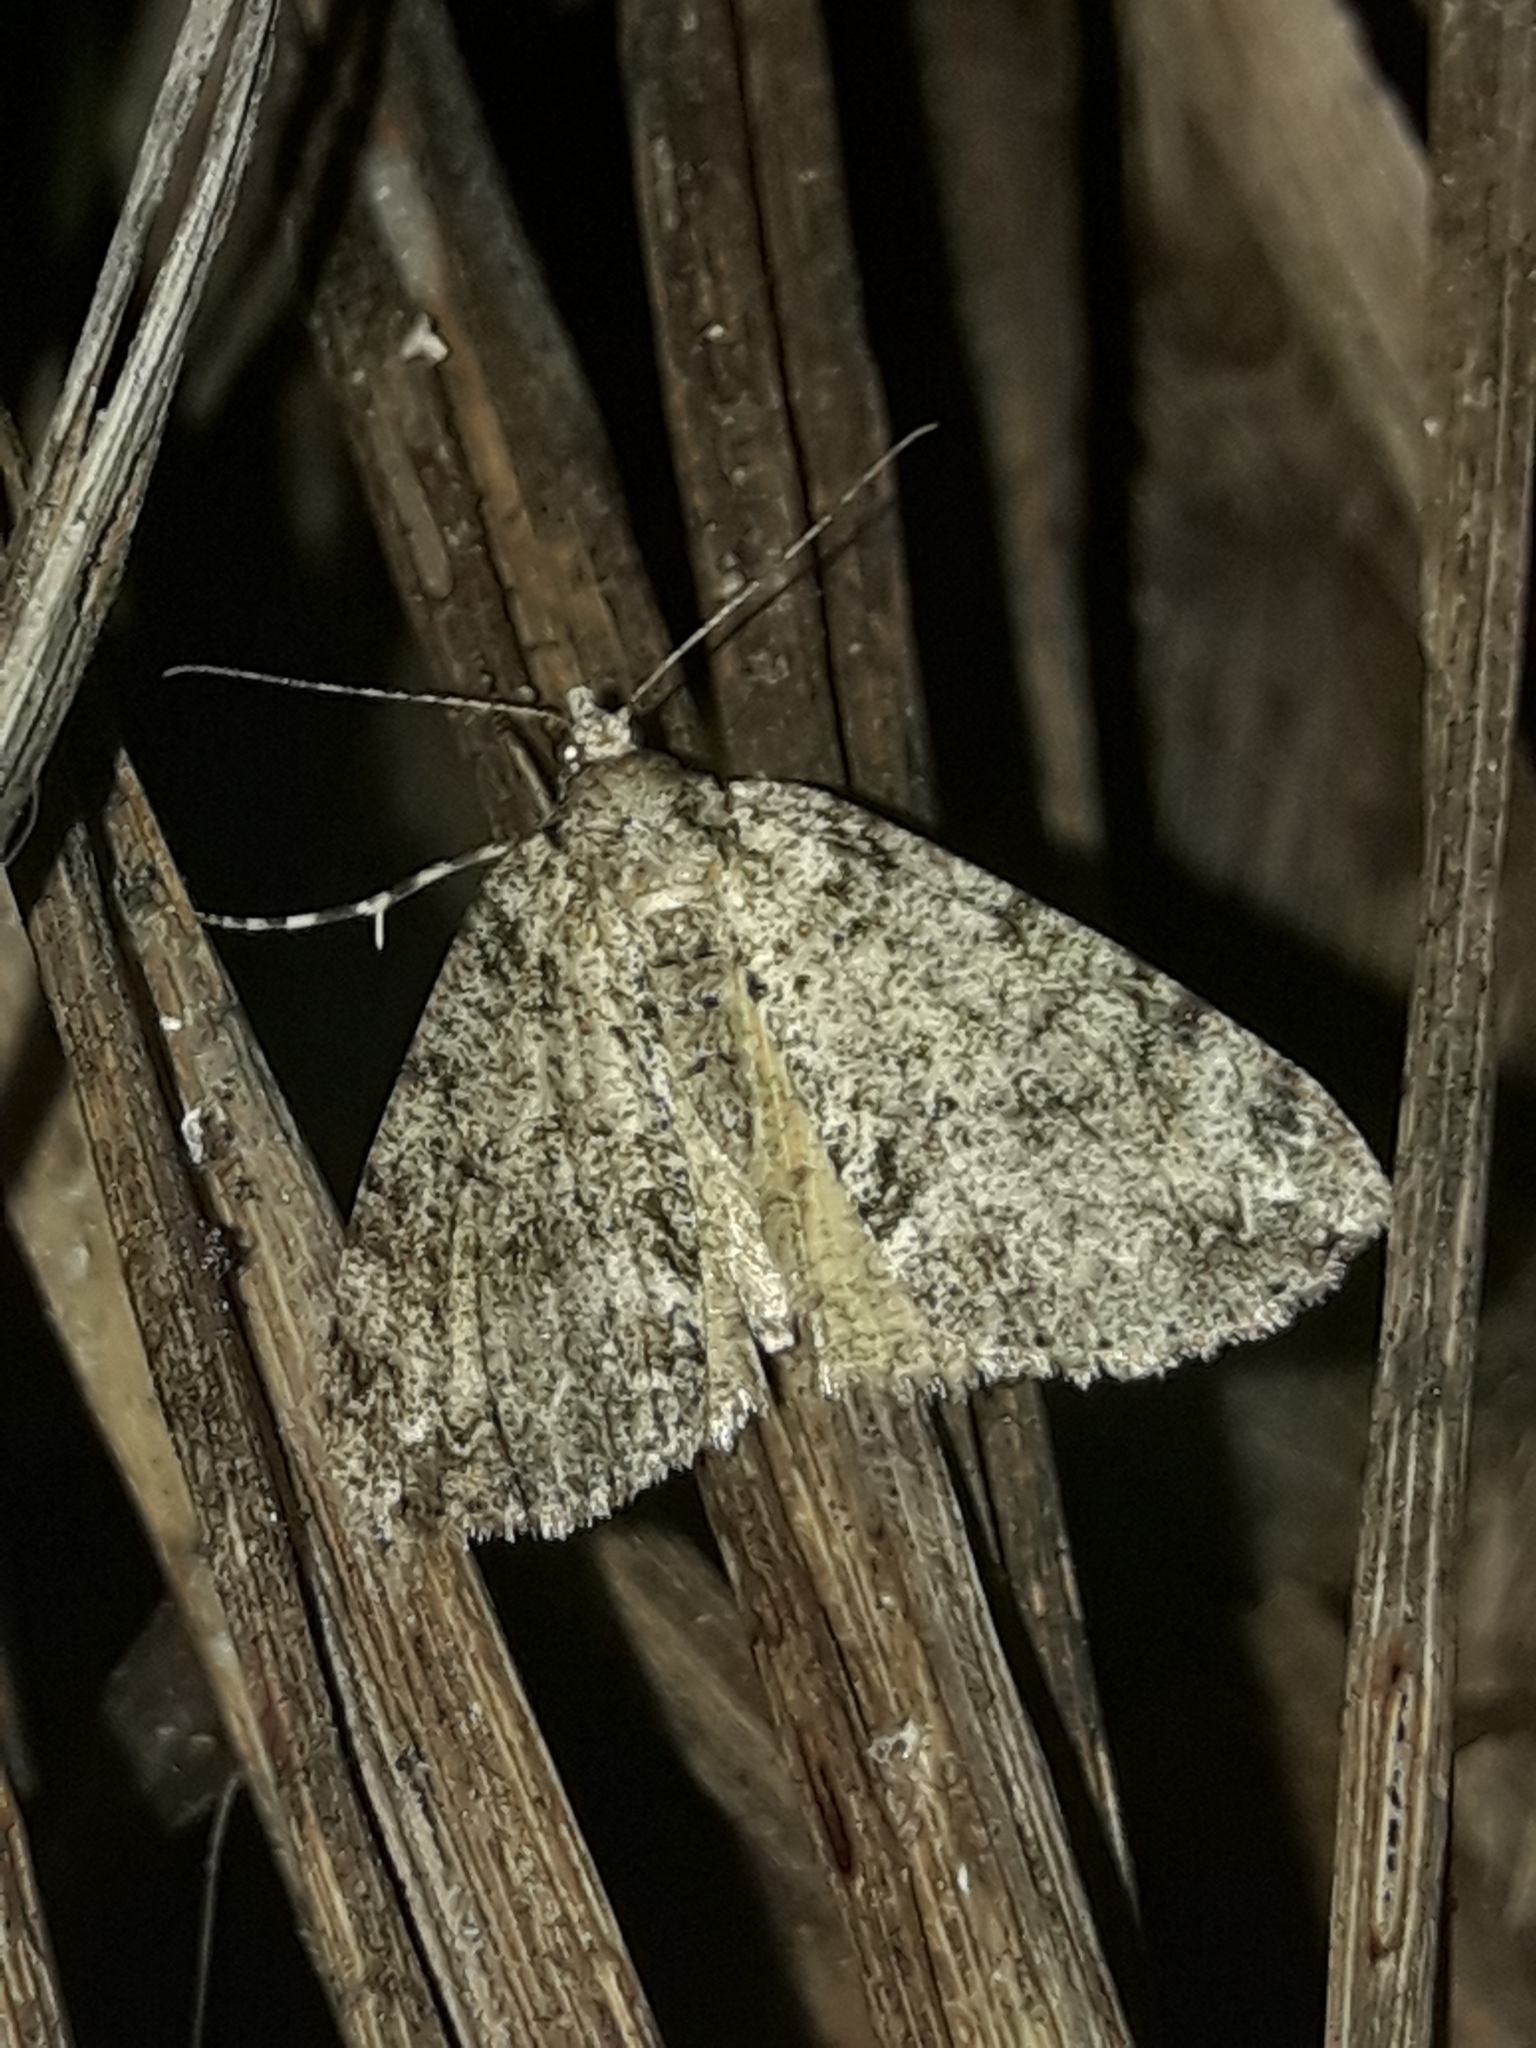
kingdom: Animalia
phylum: Arthropoda
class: Insecta
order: Lepidoptera
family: Geometridae
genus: Pseudocoremia
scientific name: Pseudocoremia suavis
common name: Common forest looper
